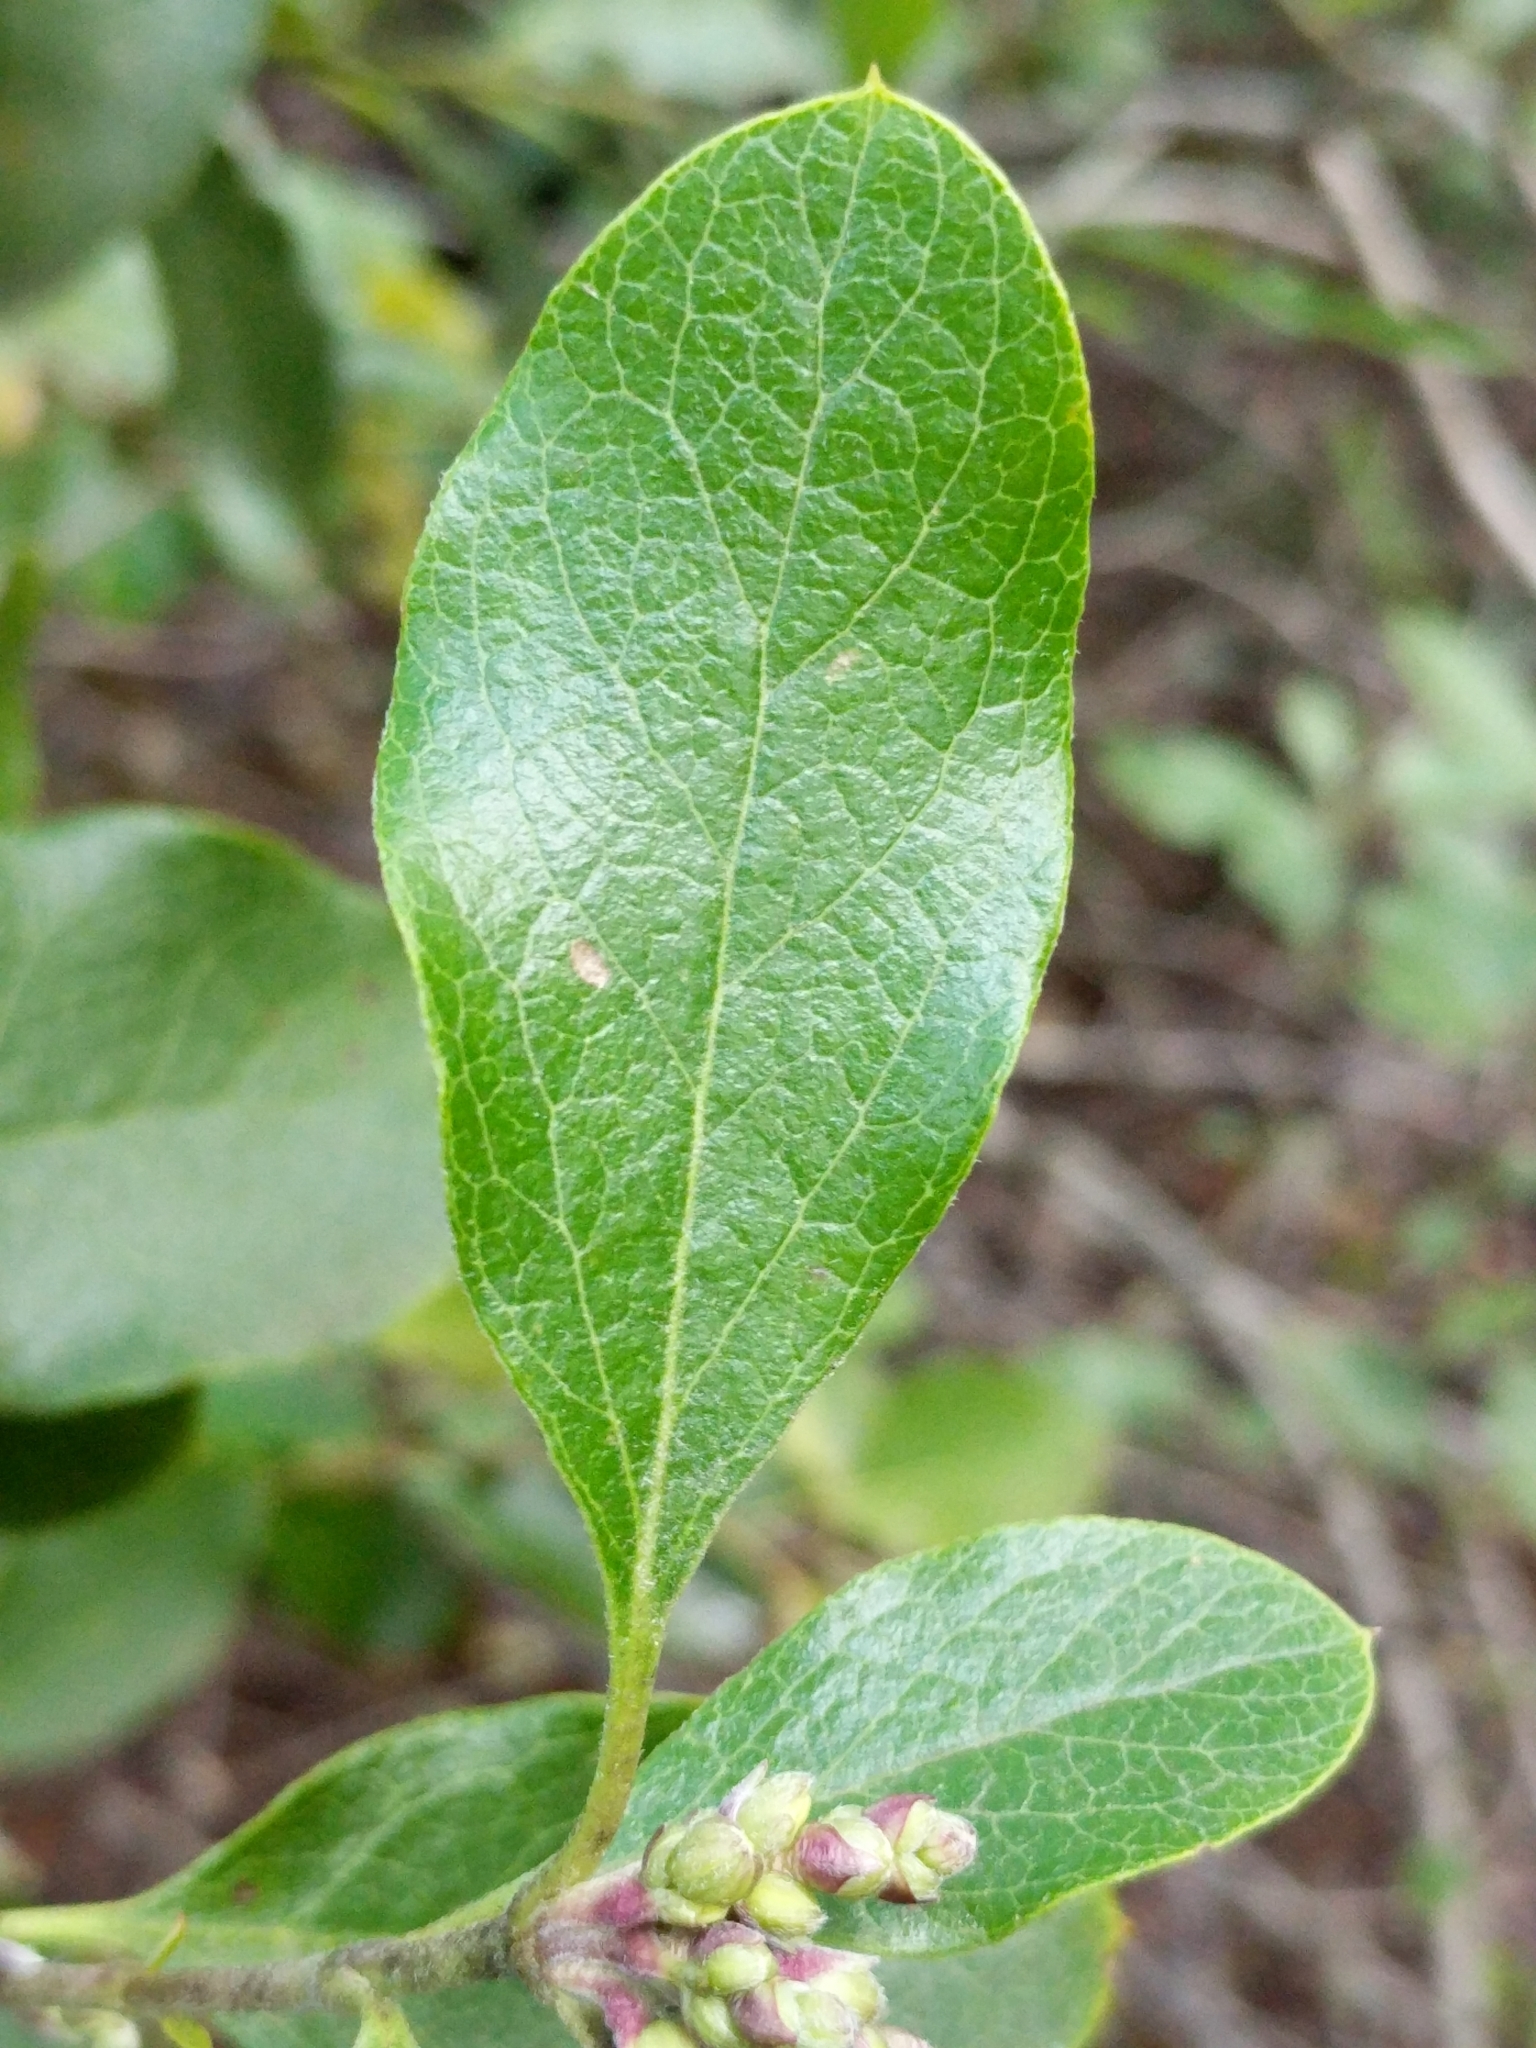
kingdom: Plantae
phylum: Tracheophyta
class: Magnoliopsida
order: Garryales
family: Garryaceae
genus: Garrya
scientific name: Garrya lindheimeri
